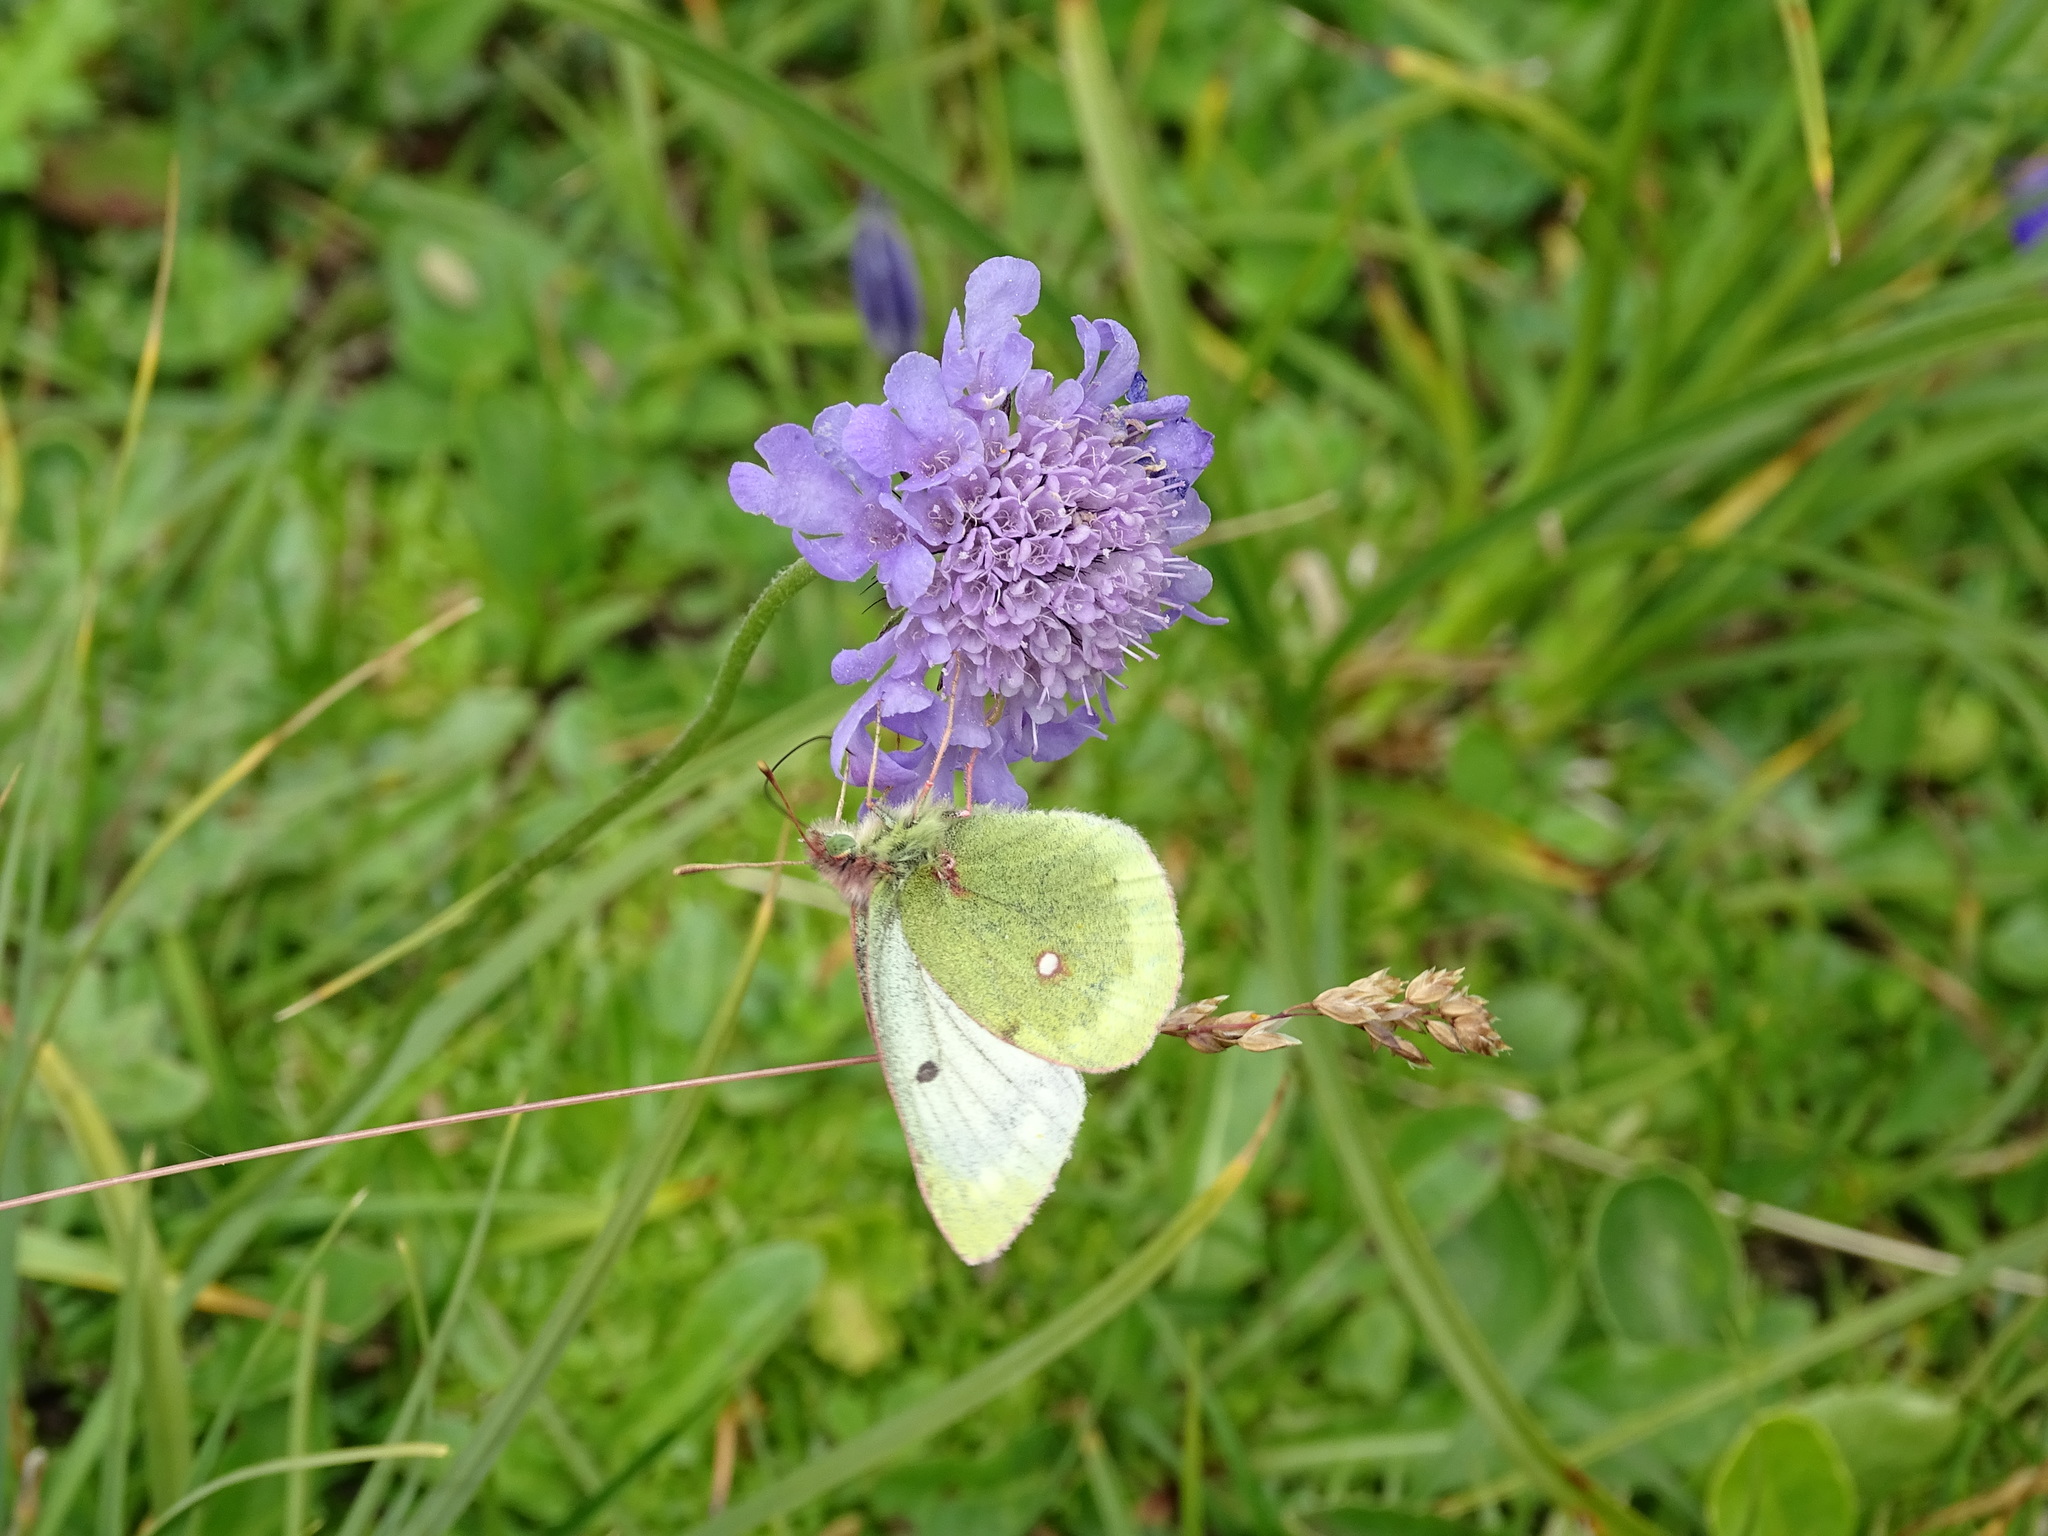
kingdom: Animalia
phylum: Arthropoda
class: Insecta
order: Lepidoptera
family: Pieridae
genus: Colias
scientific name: Colias phicomone
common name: Mountain clouded yellow
